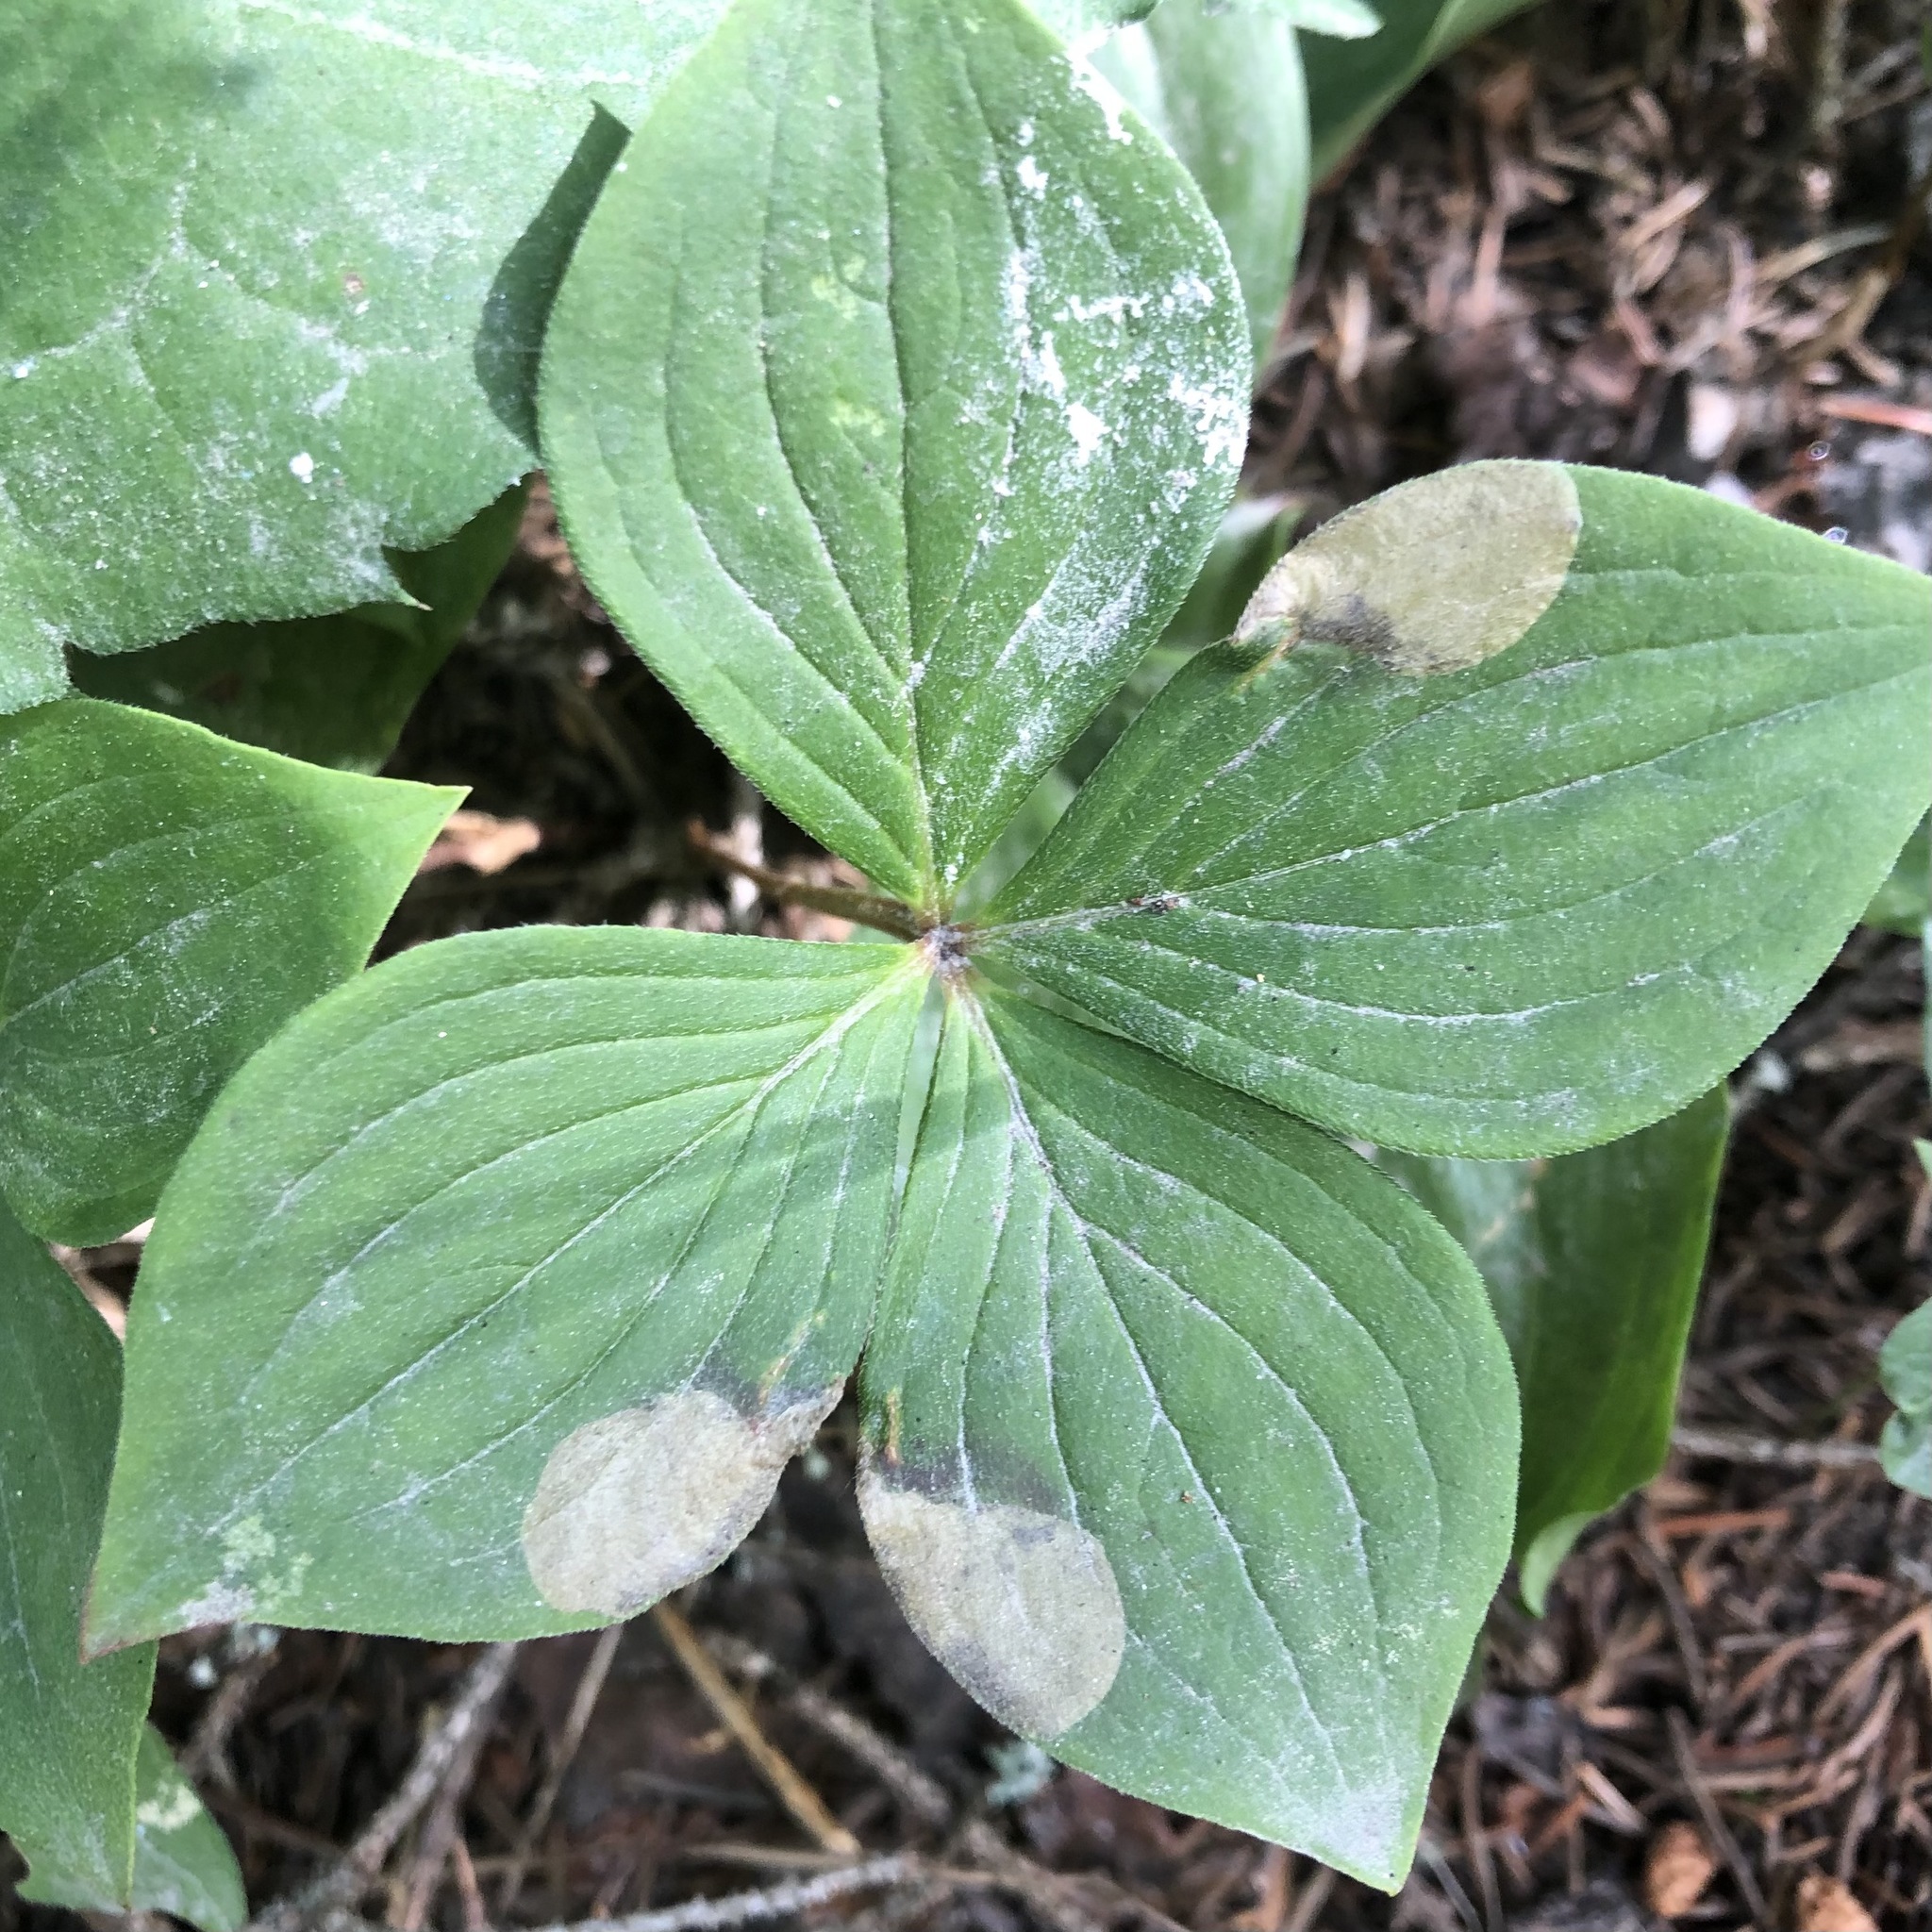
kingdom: Animalia
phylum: Arthropoda
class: Insecta
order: Lepidoptera
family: Heliozelidae
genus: Antispila
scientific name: Antispila freemani
